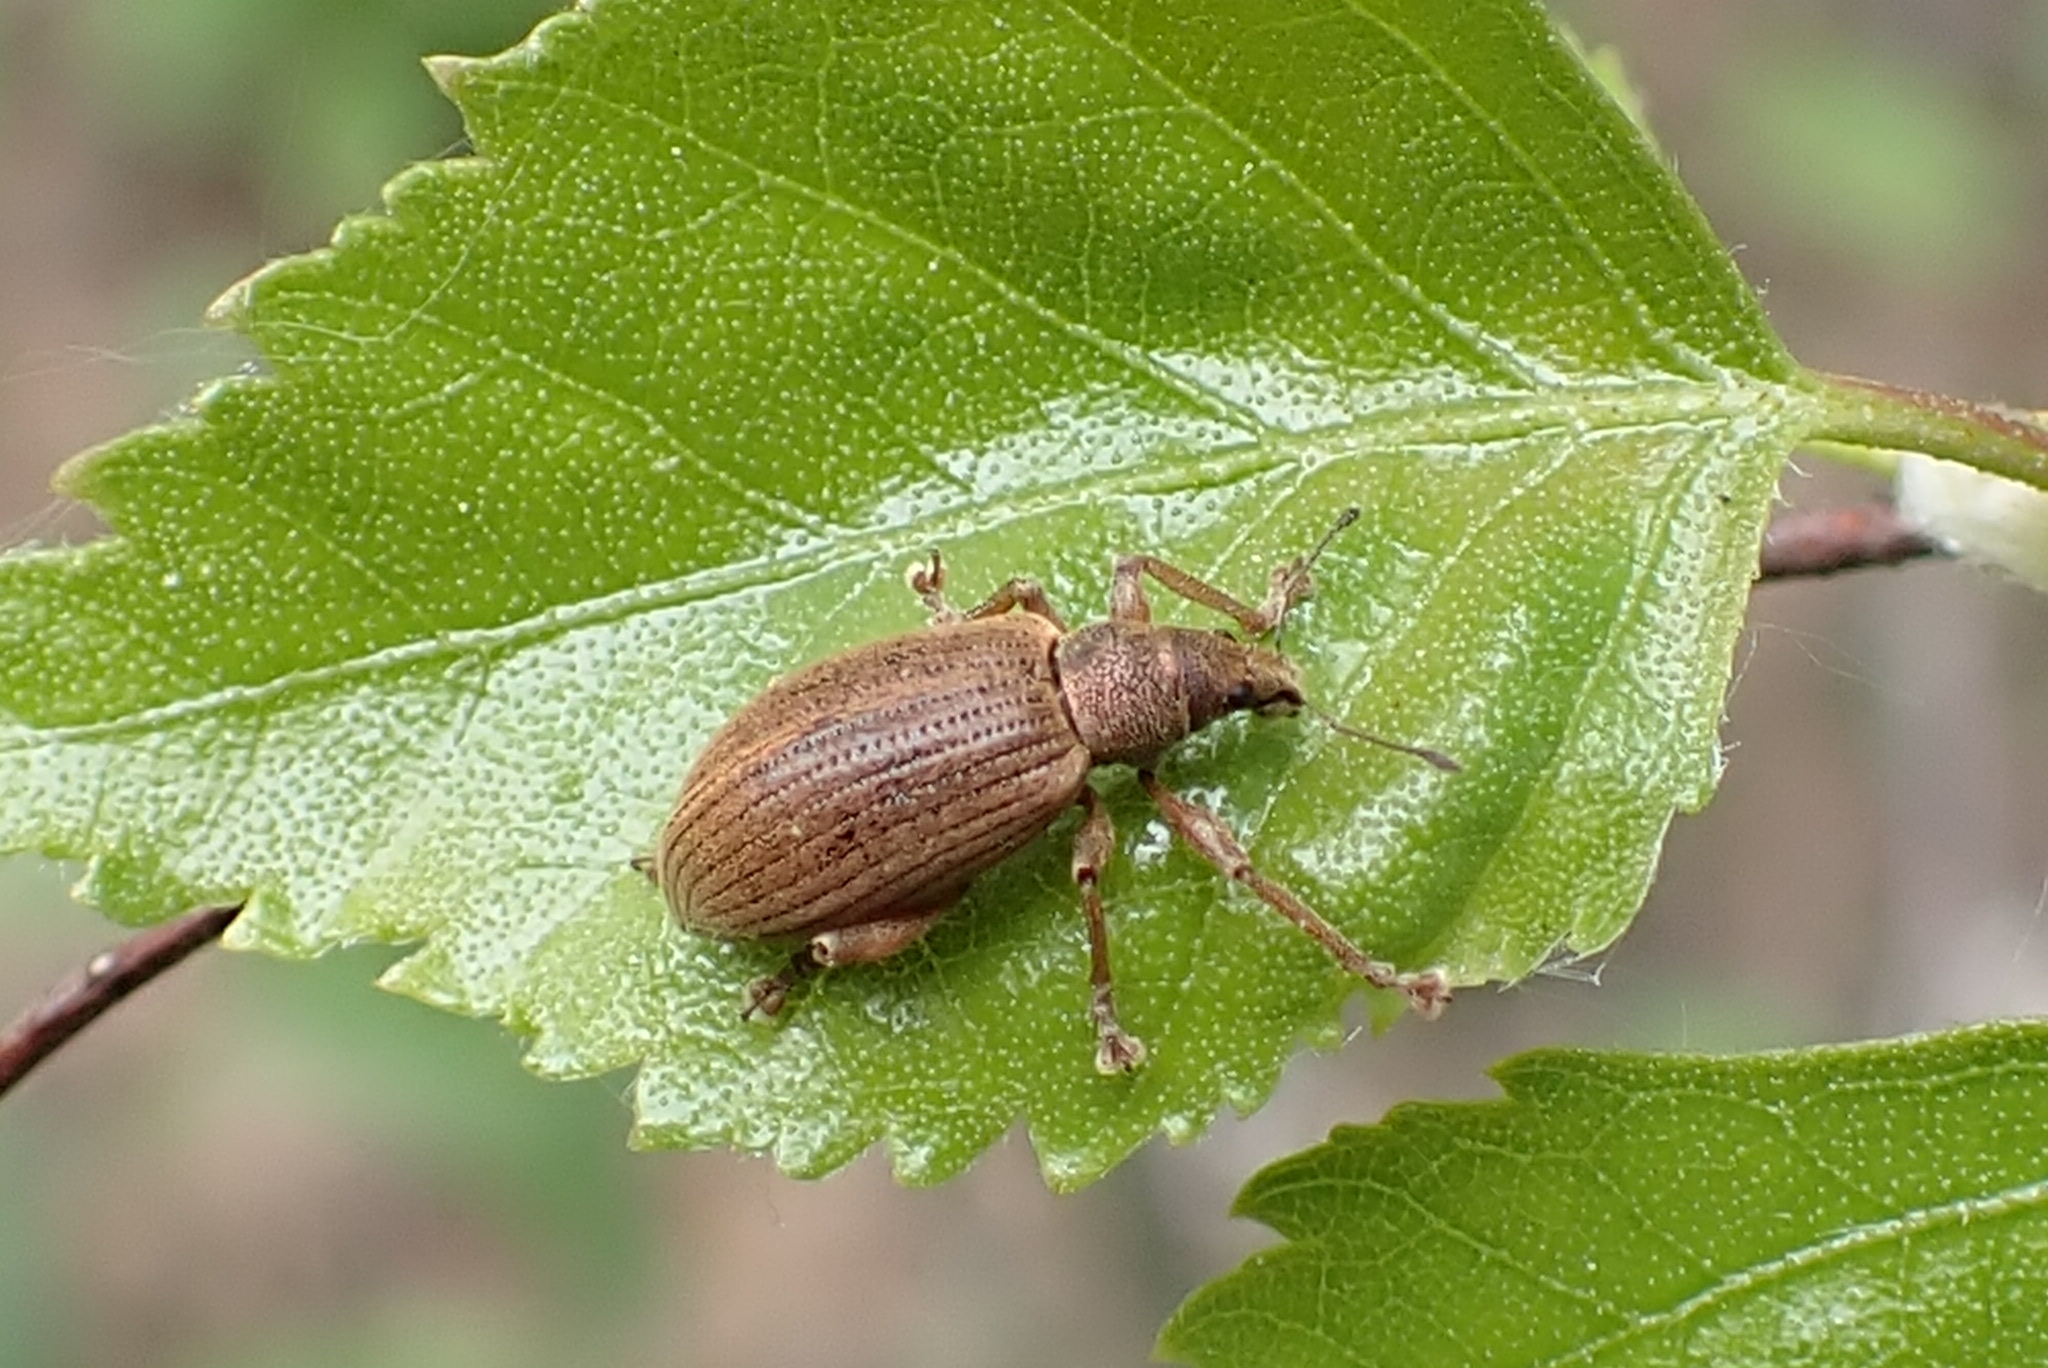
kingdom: Animalia
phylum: Arthropoda
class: Insecta
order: Coleoptera
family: Curculionidae
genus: Polydrusus
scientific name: Polydrusus mollis
